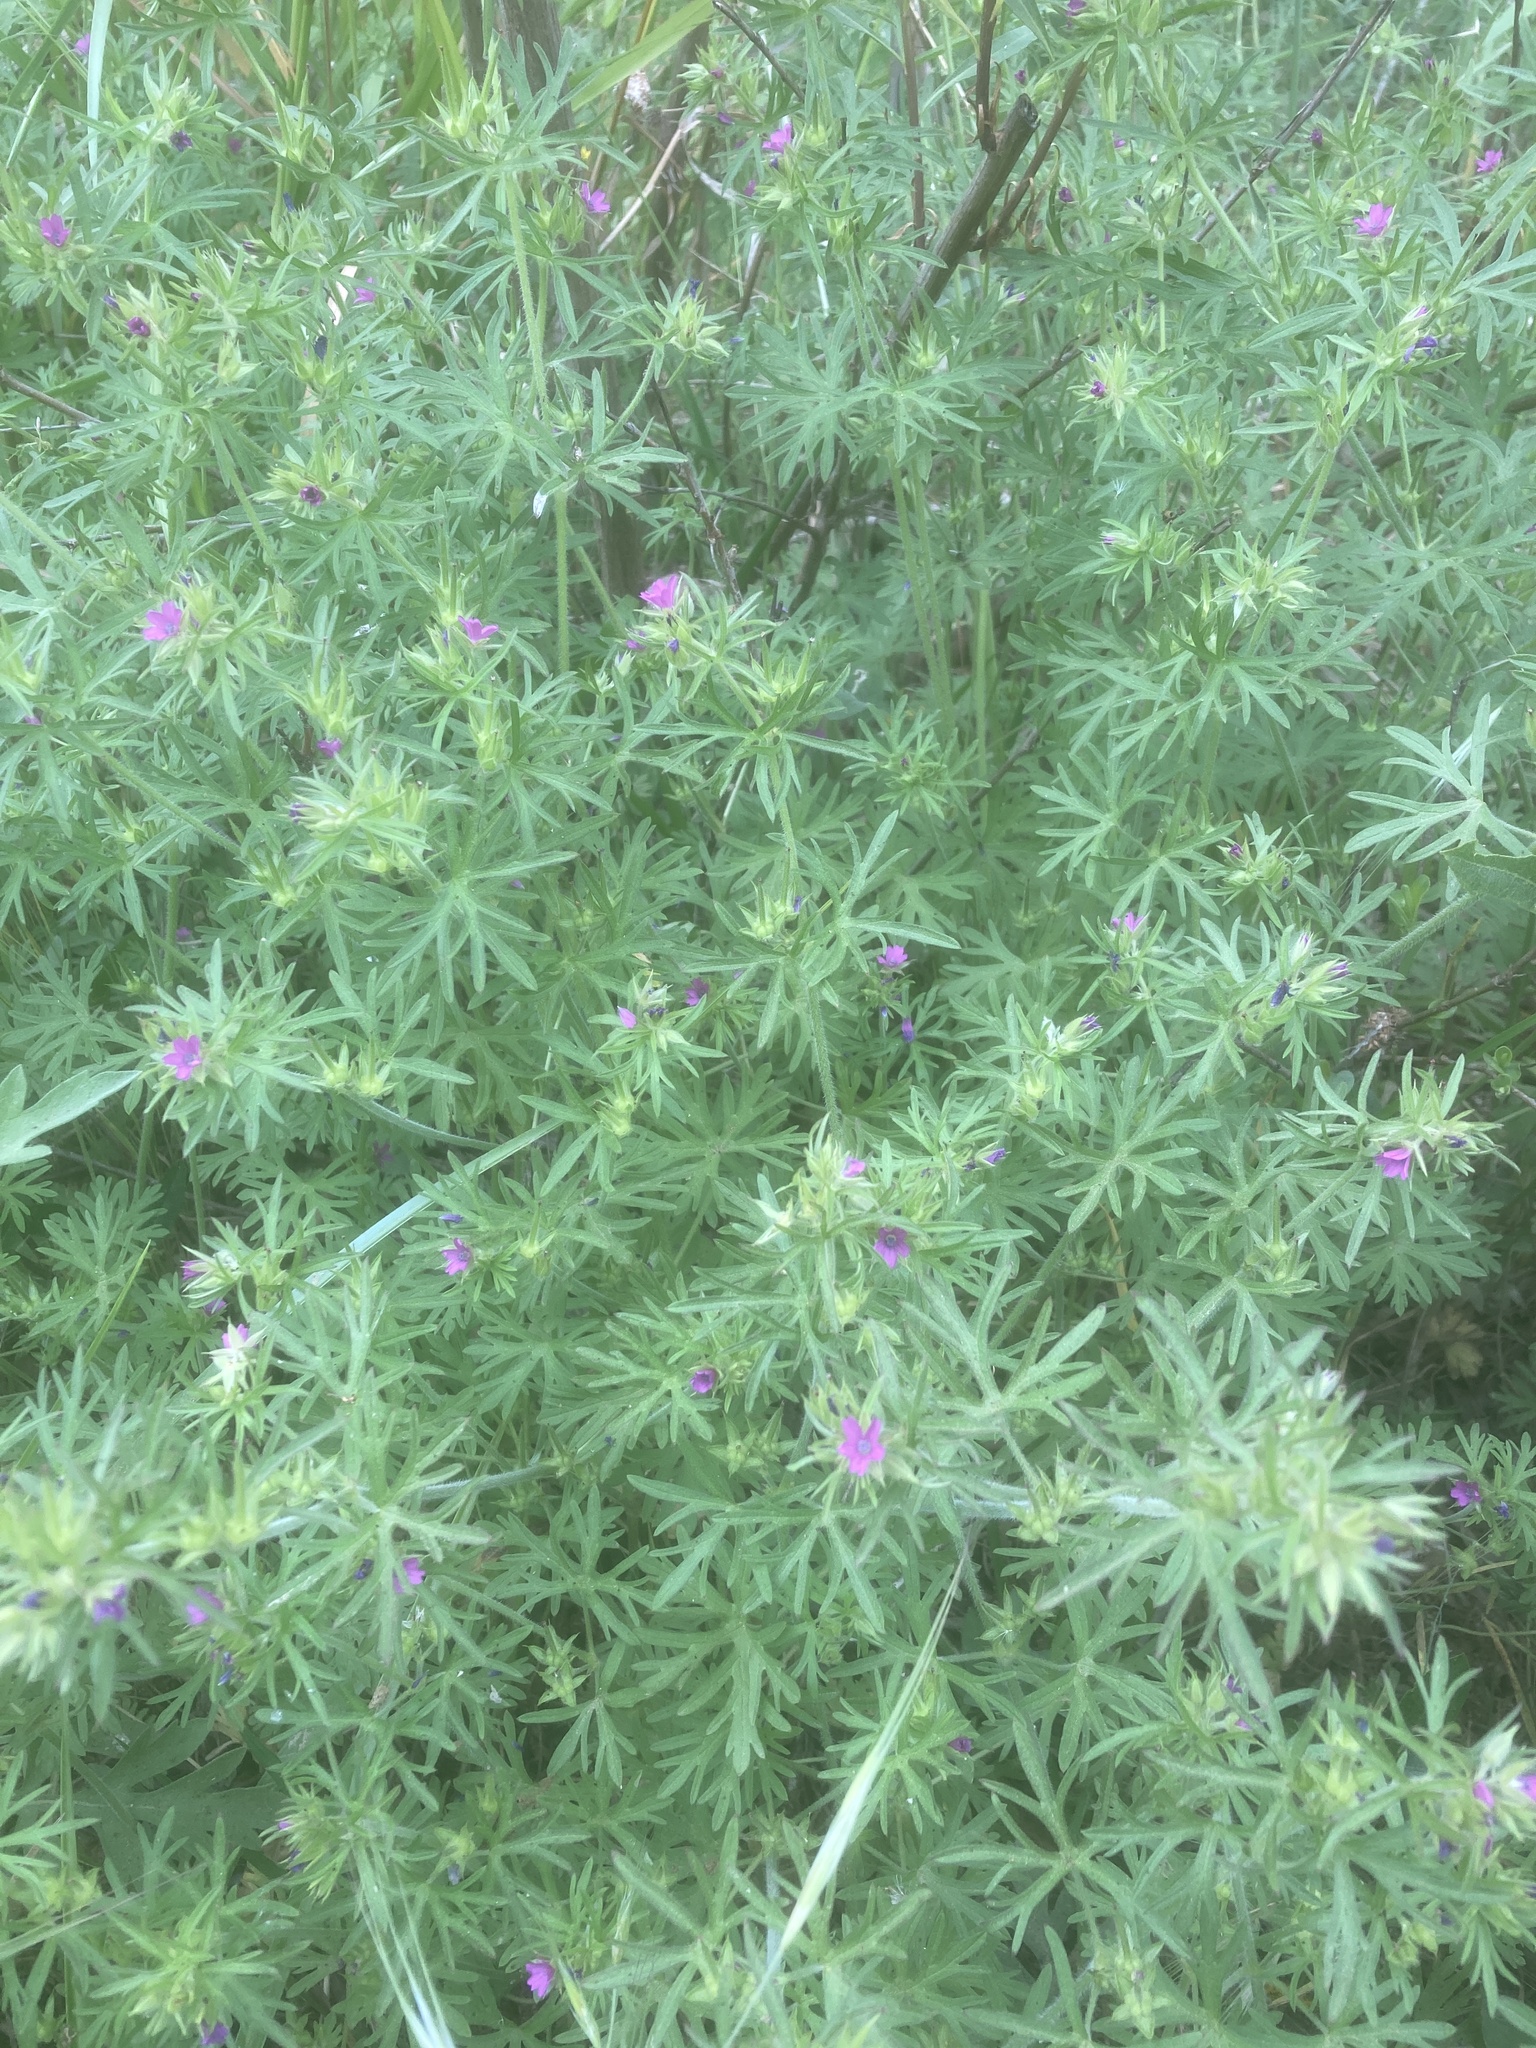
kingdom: Plantae
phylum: Tracheophyta
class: Magnoliopsida
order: Geraniales
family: Geraniaceae
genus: Geranium
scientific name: Geranium dissectum
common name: Cut-leaved crane's-bill
